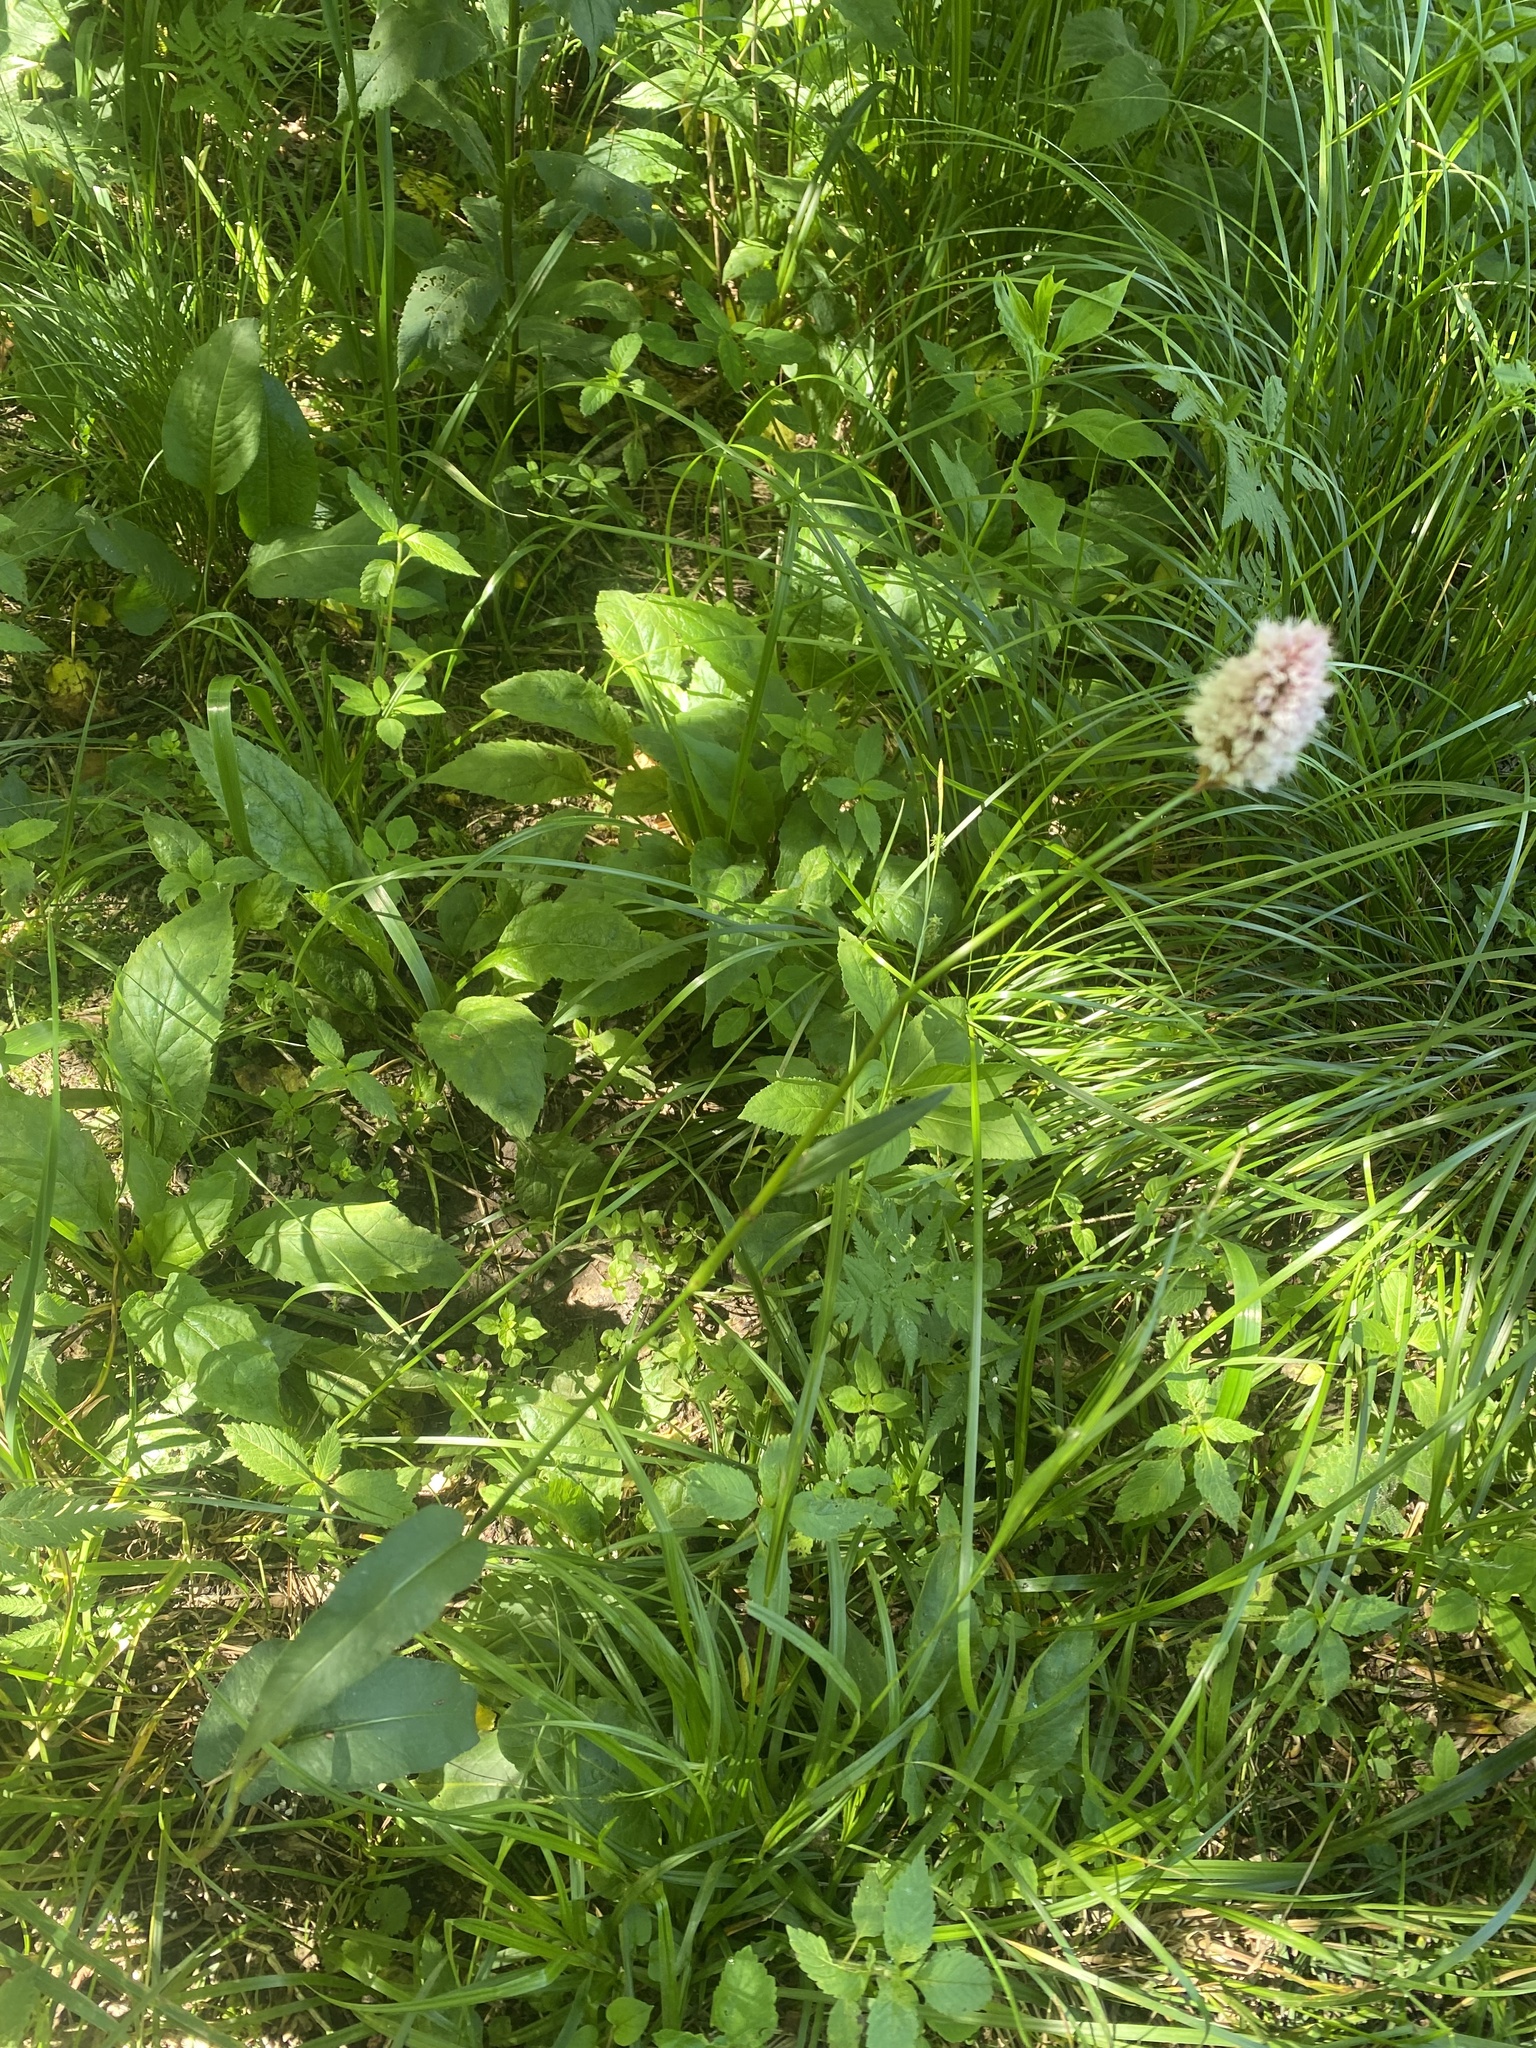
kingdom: Plantae
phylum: Tracheophyta
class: Magnoliopsida
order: Caryophyllales
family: Polygonaceae
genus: Bistorta
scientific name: Bistorta carnea
